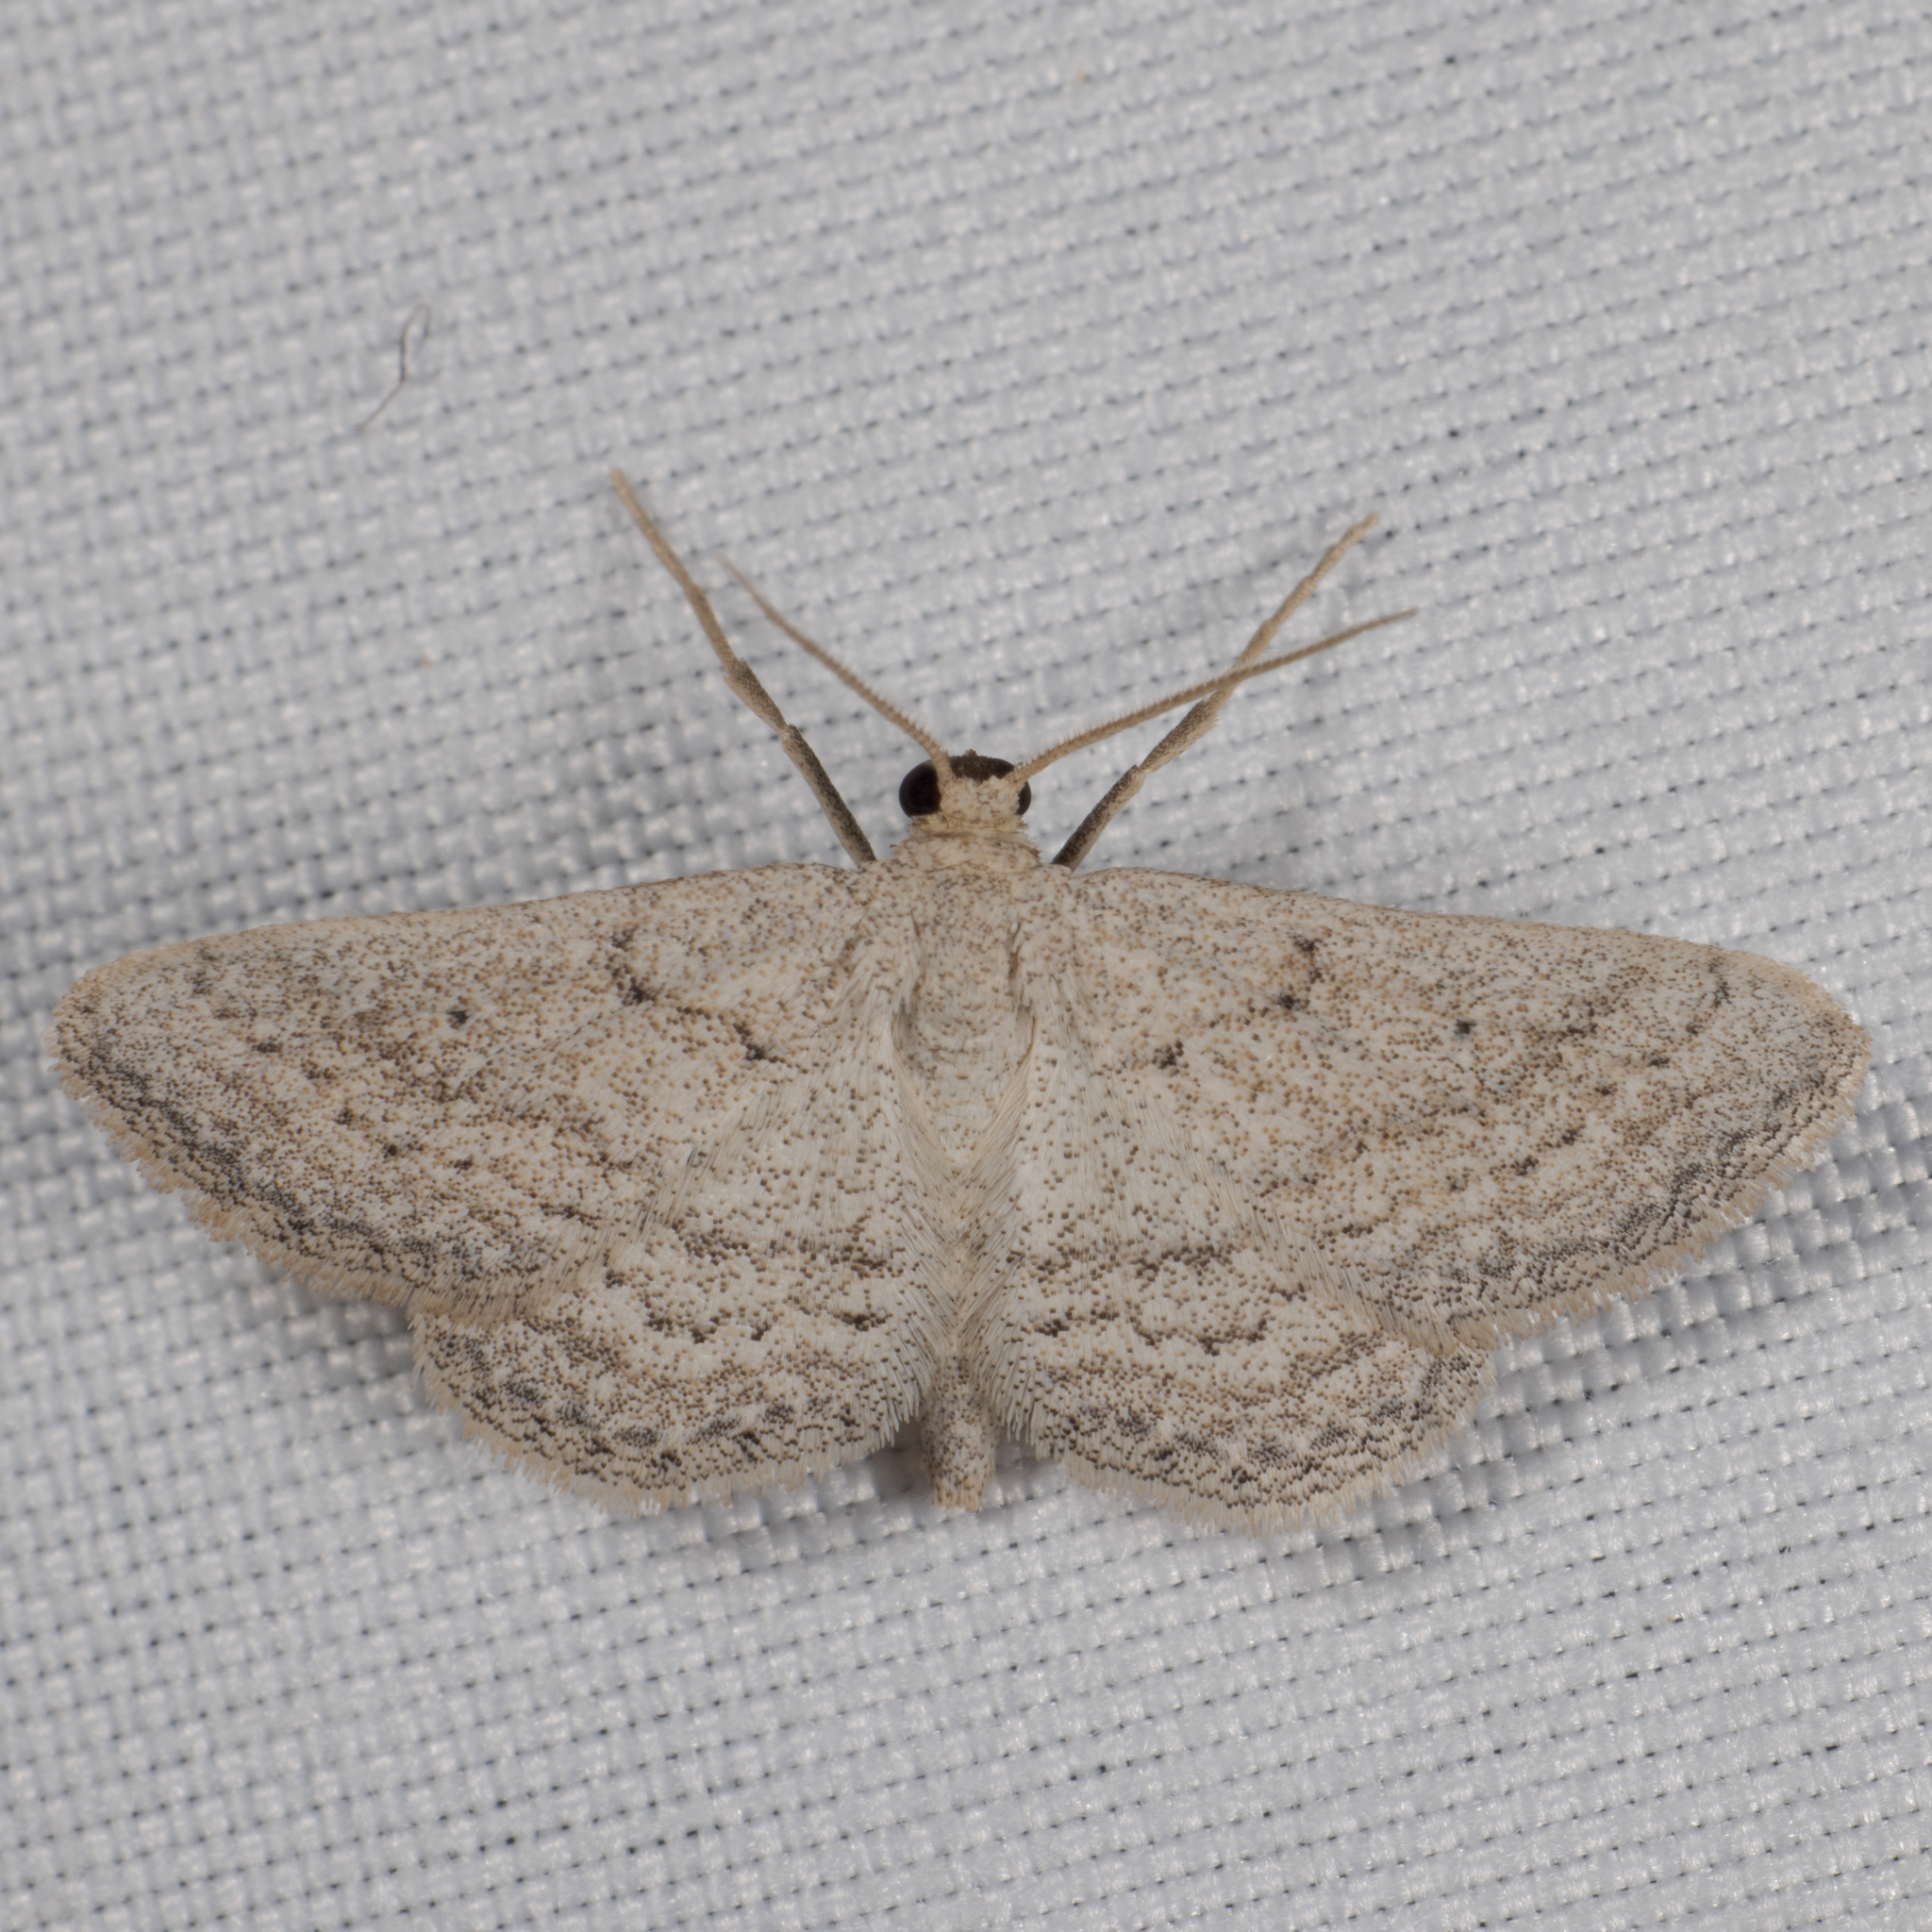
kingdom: Animalia
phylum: Arthropoda
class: Insecta
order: Lepidoptera
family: Geometridae
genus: Lobocleta
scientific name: Lobocleta ossularia
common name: Drab brown wave
